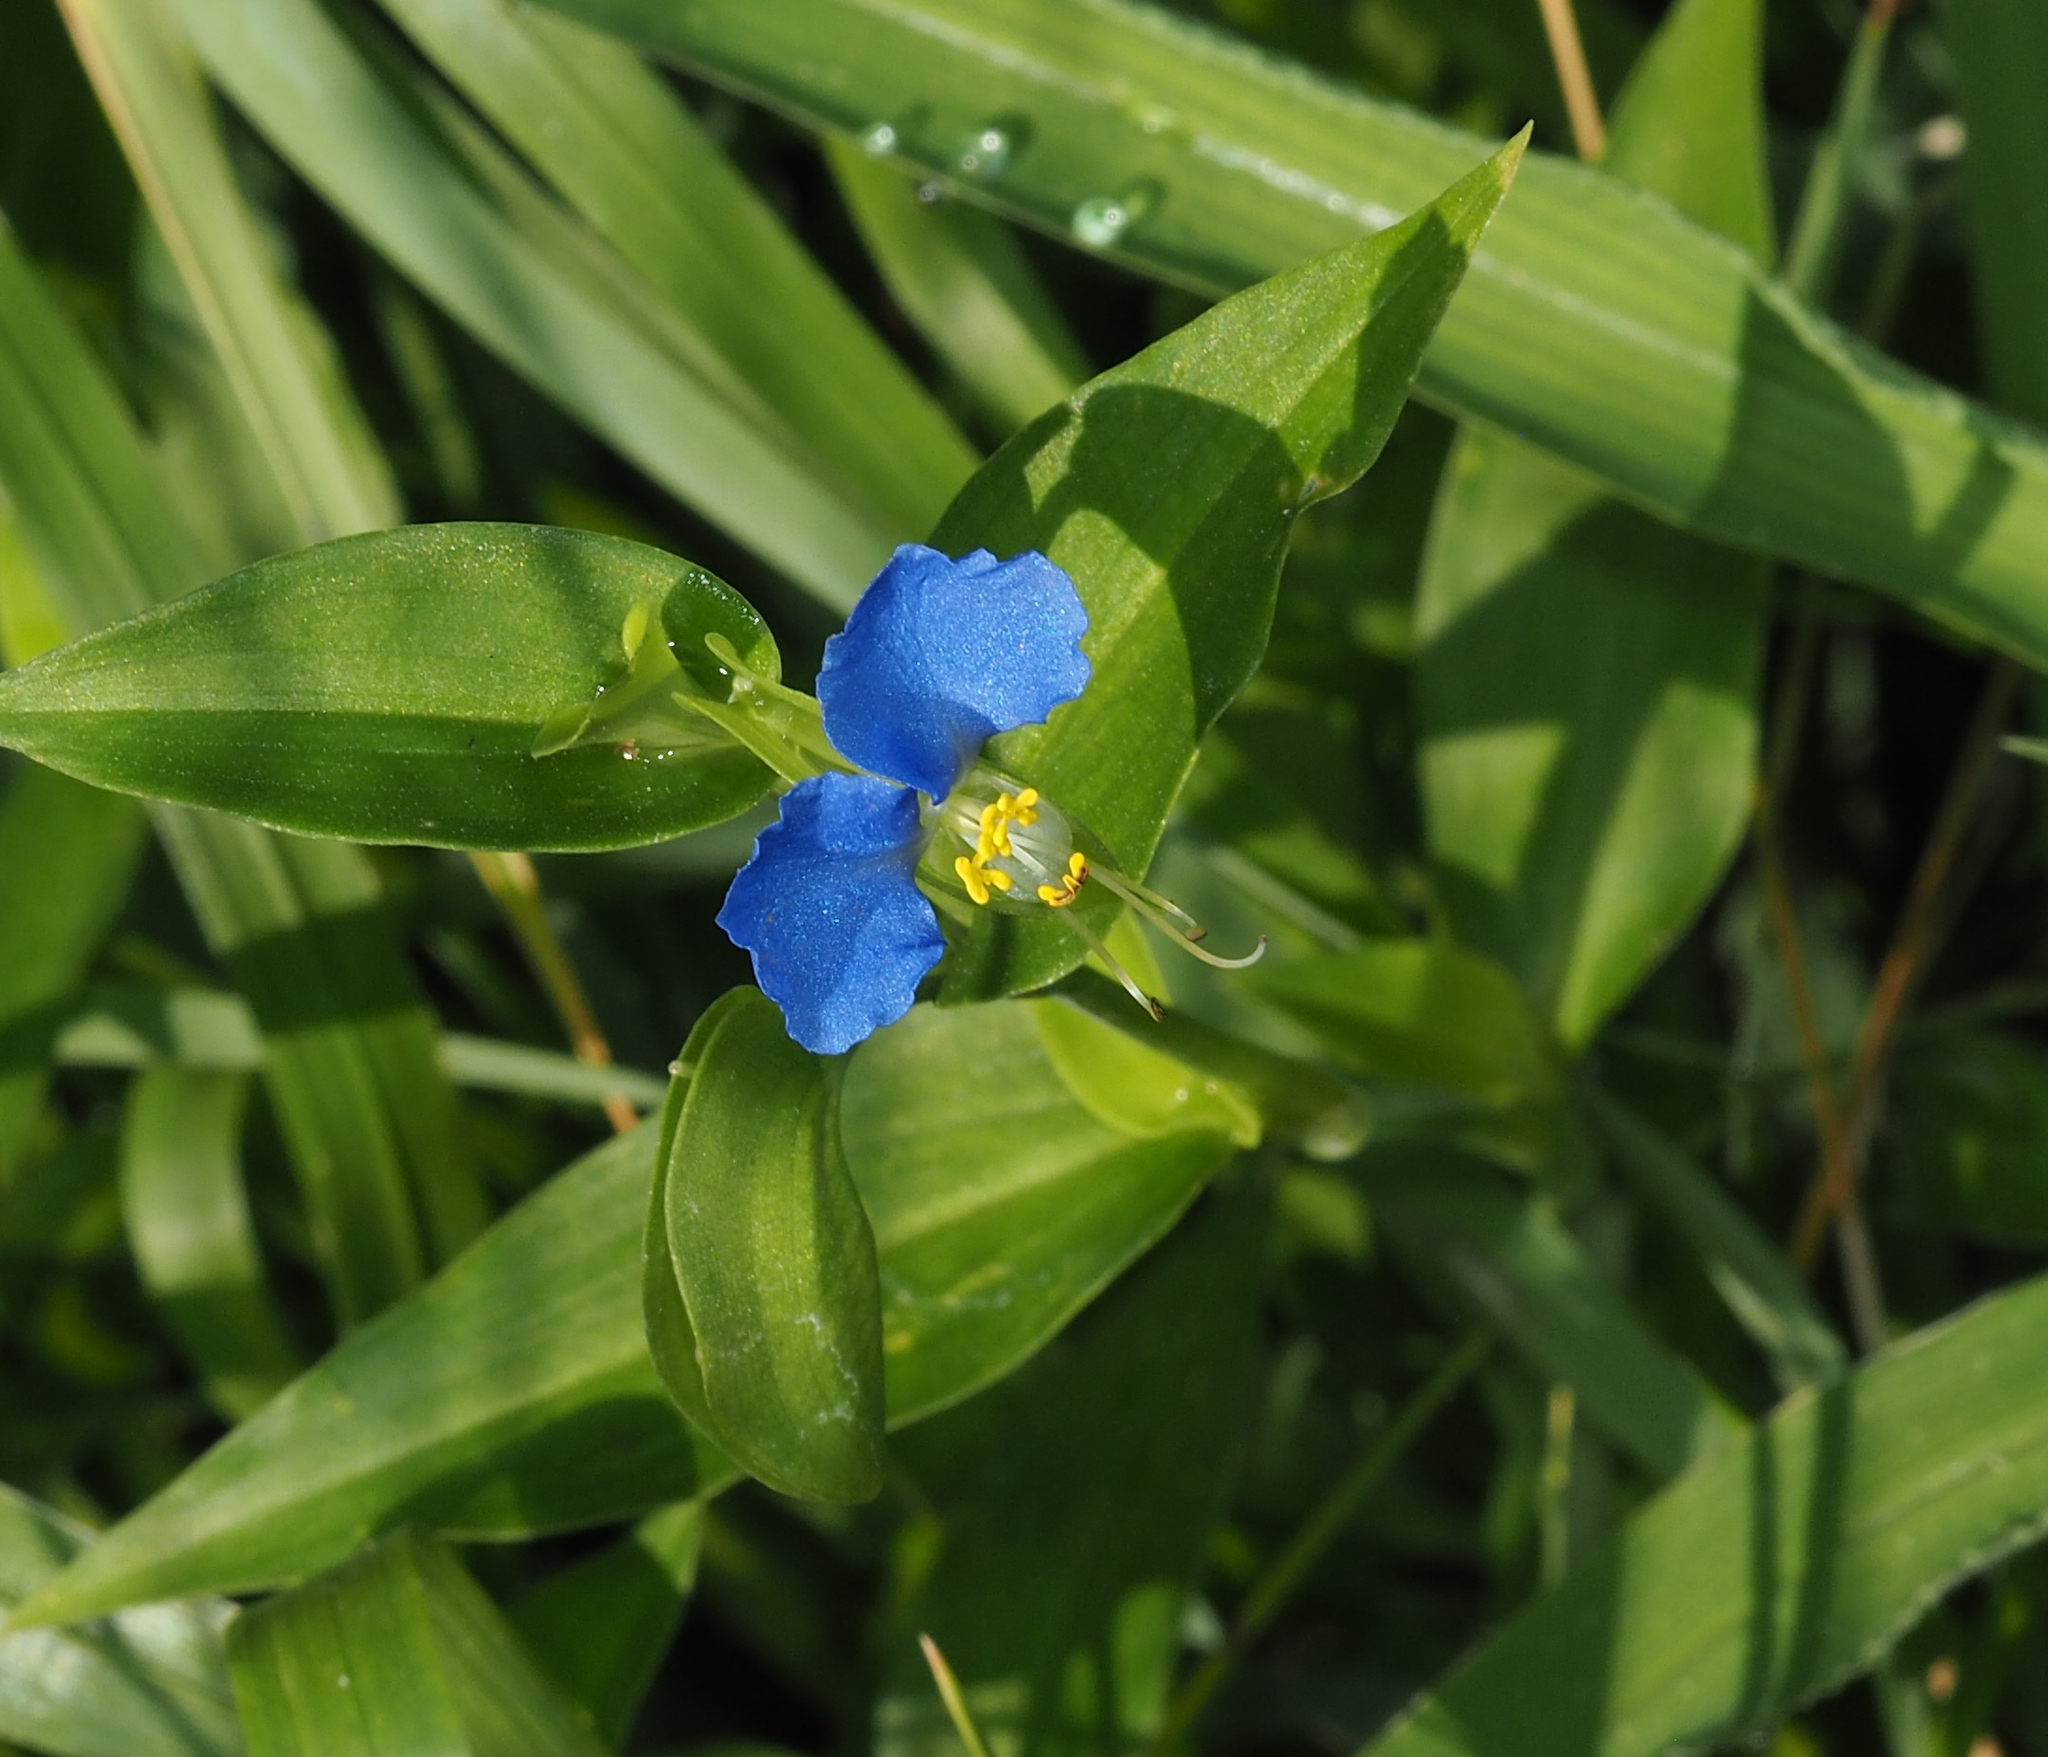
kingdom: Plantae
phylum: Tracheophyta
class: Liliopsida
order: Commelinales
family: Commelinaceae
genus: Commelina
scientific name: Commelina communis
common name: Asiatic dayflower
